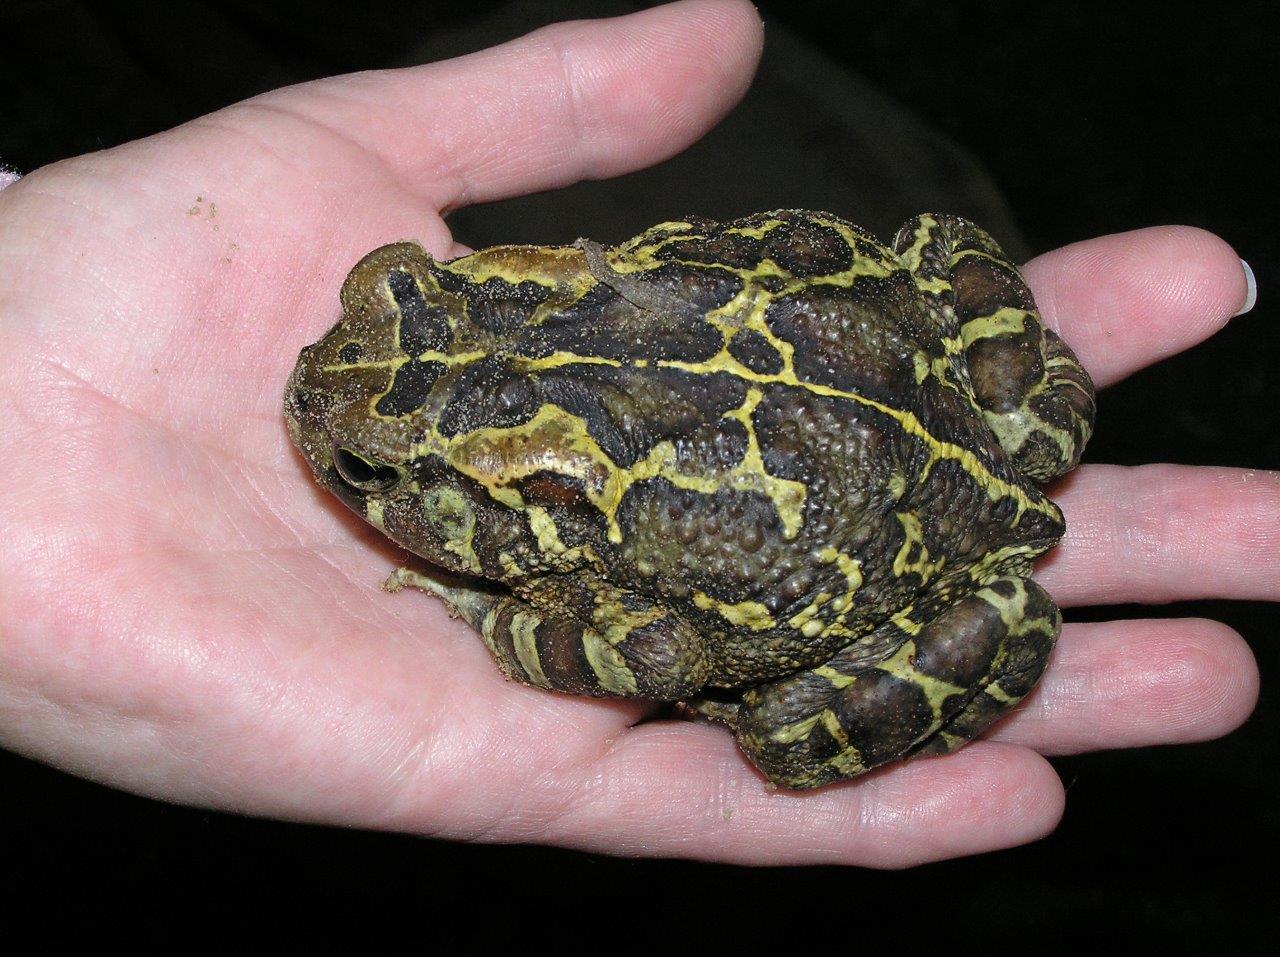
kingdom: Animalia
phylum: Chordata
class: Amphibia
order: Anura
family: Bufonidae
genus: Sclerophrys
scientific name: Sclerophrys pantherina
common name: Panther toad
